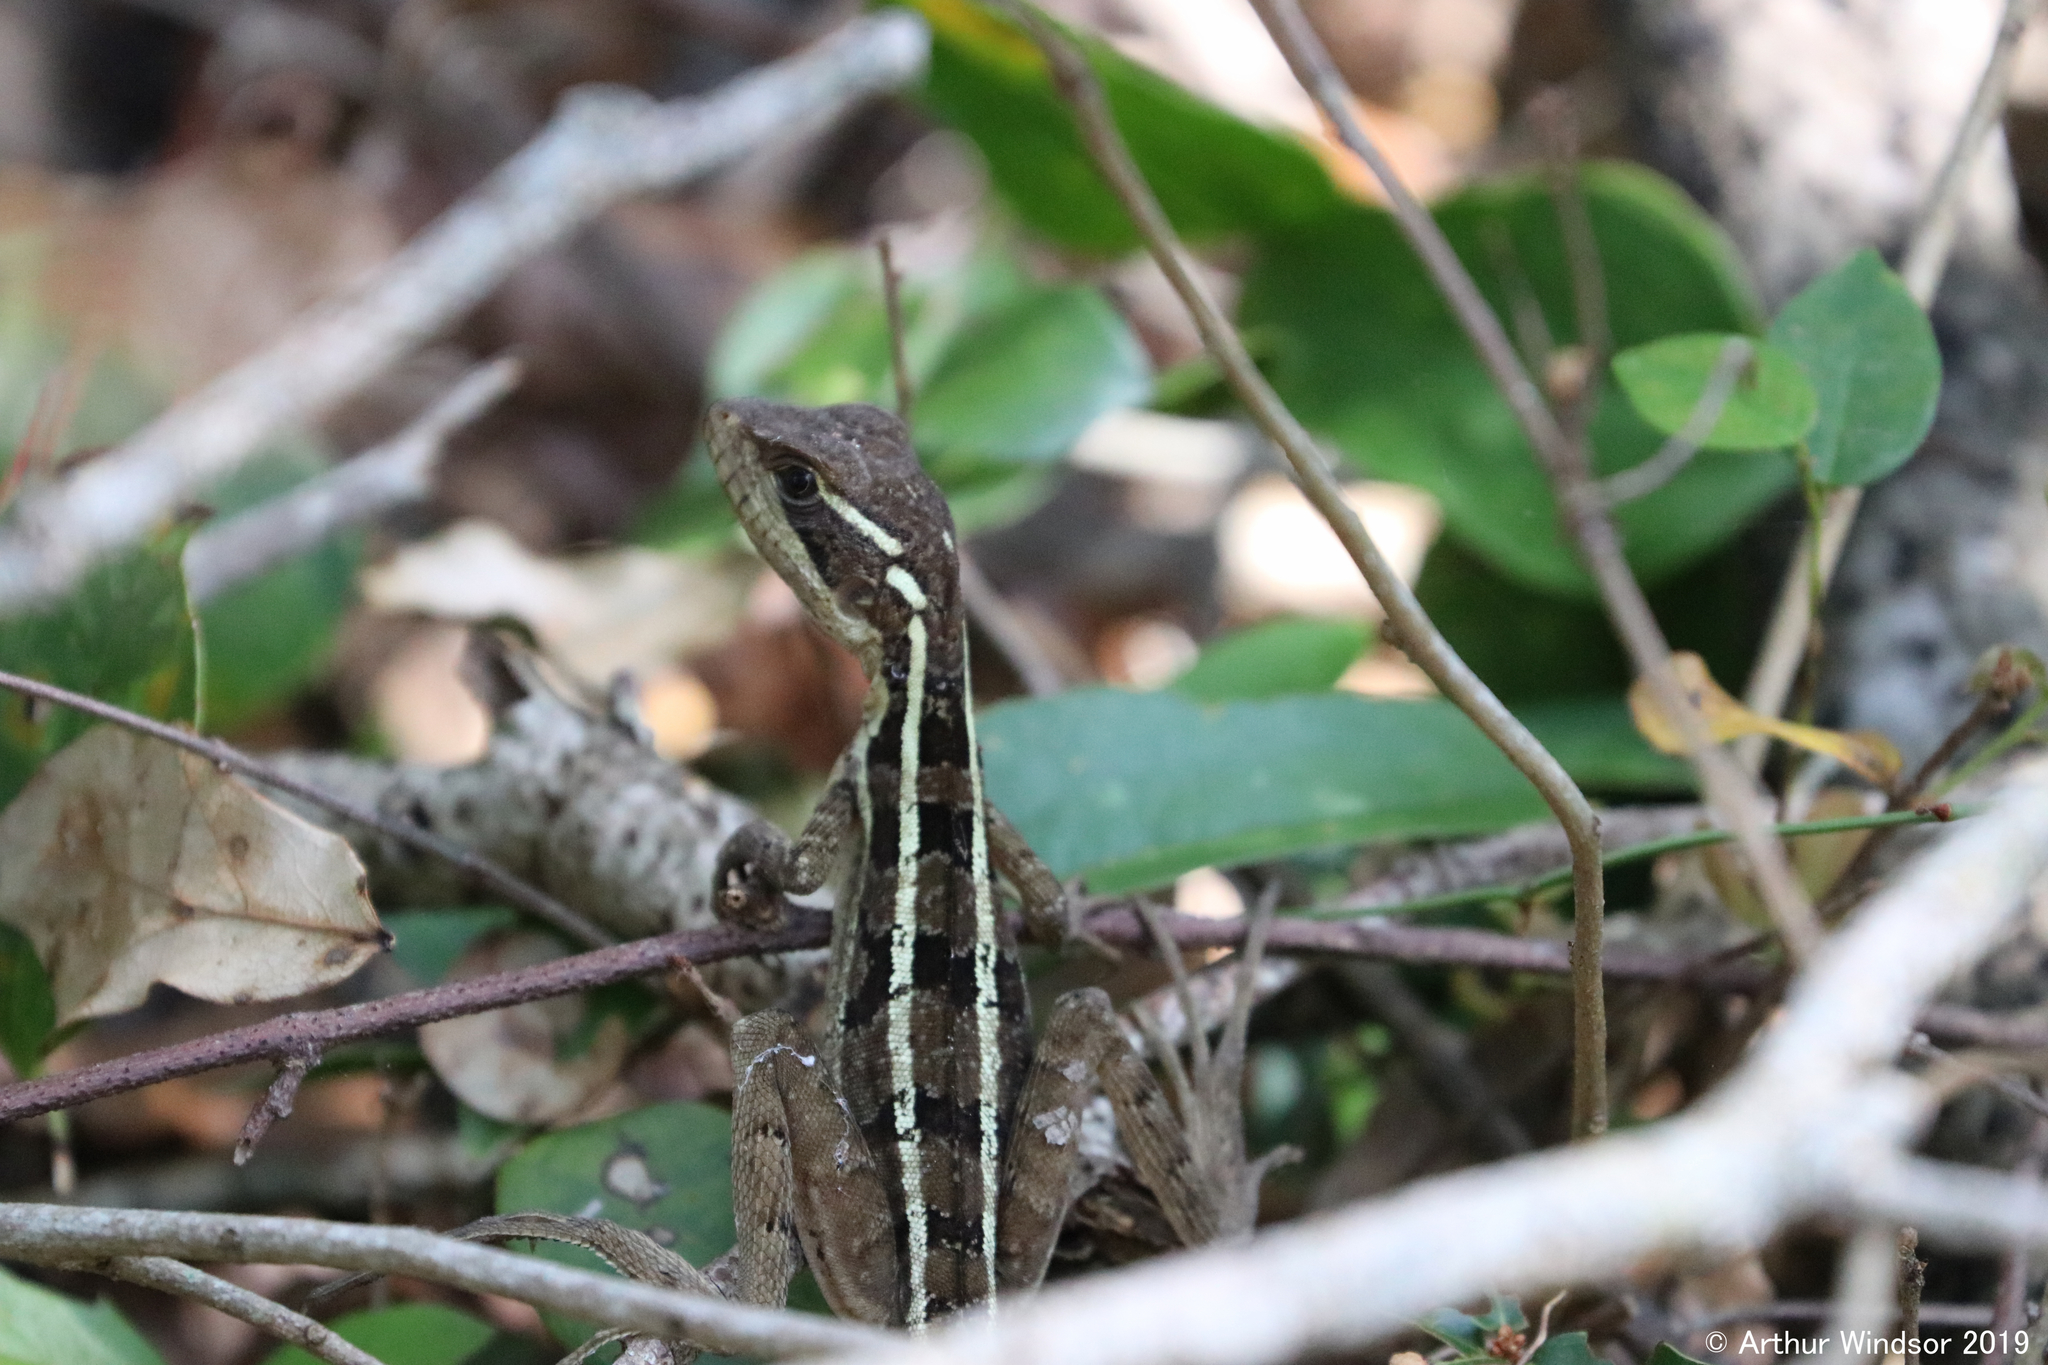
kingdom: Animalia
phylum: Chordata
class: Squamata
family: Corytophanidae
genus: Basiliscus
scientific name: Basiliscus vittatus
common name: Brown basilisk
